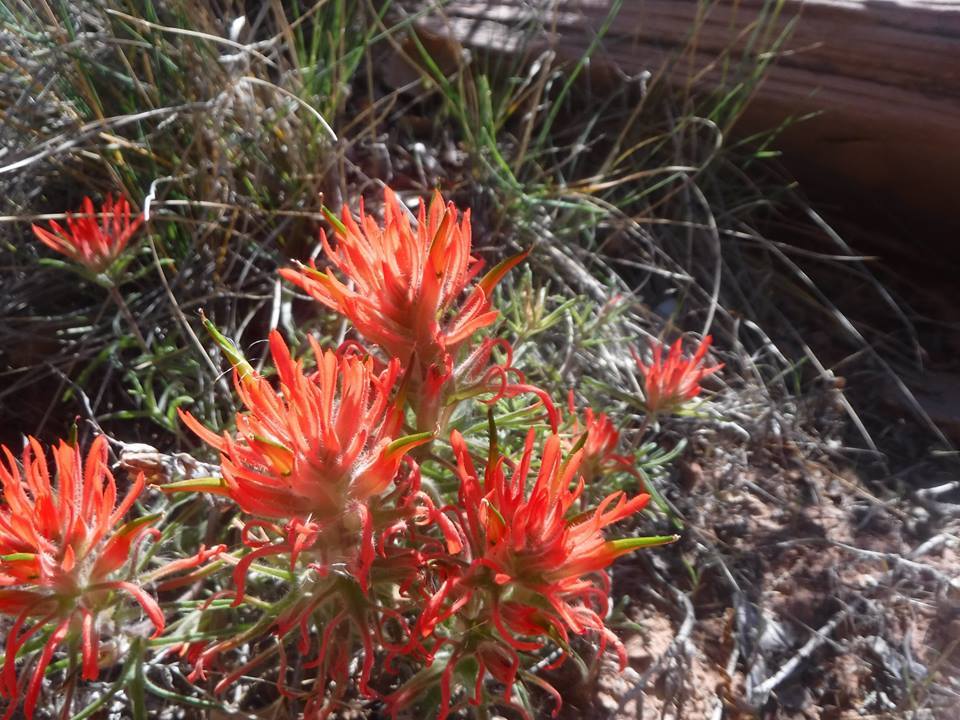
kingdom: Plantae
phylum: Tracheophyta
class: Magnoliopsida
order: Lamiales
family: Orobanchaceae
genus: Castilleja
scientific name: Castilleja chromosa
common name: Desert paintbrush
